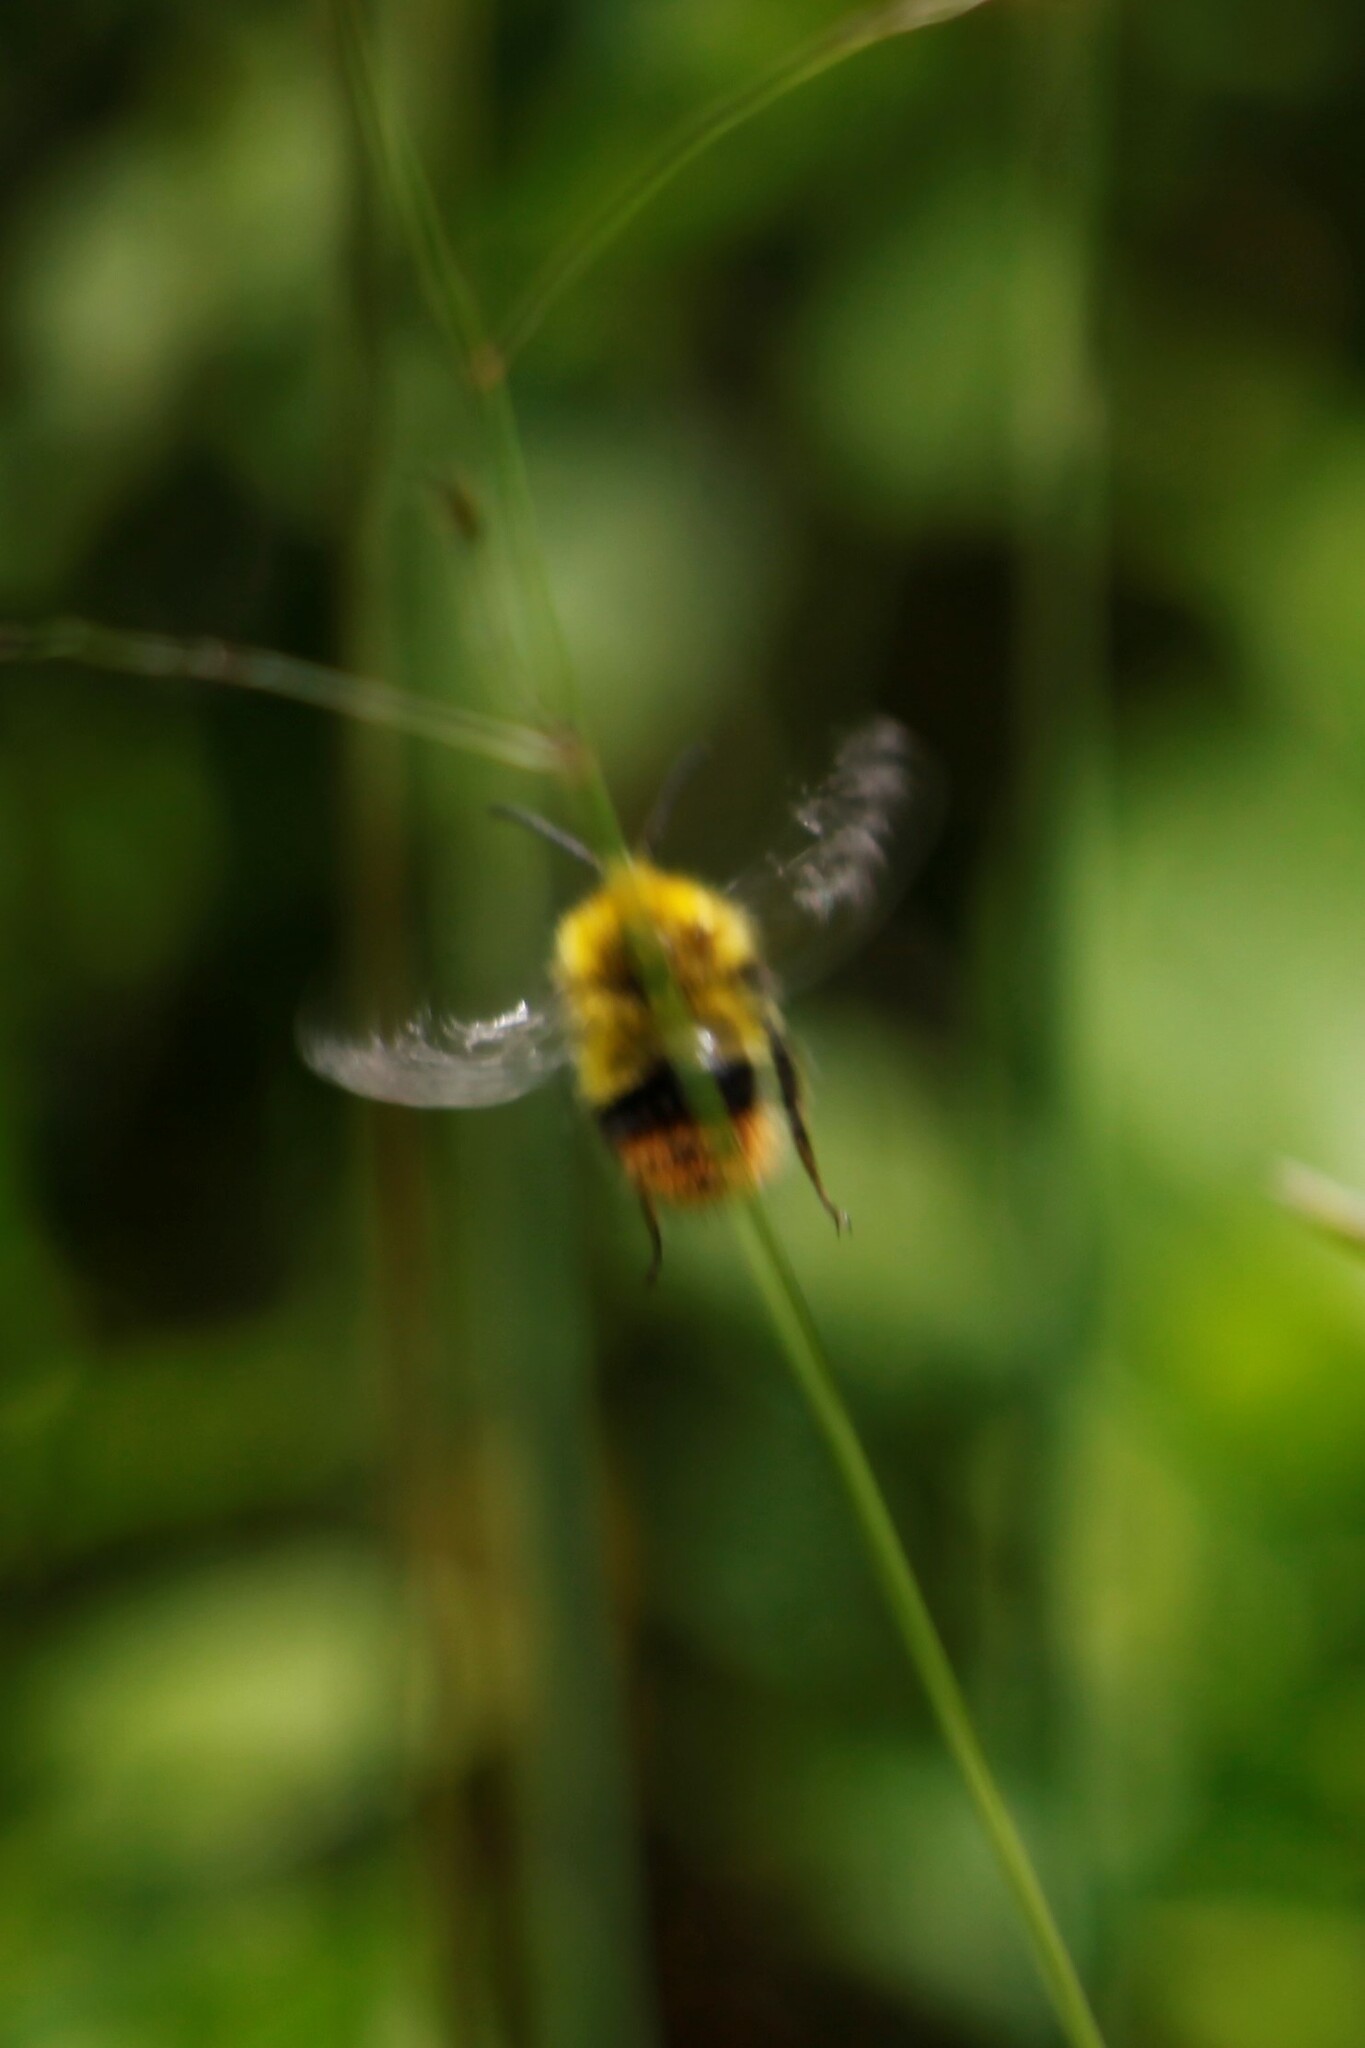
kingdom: Animalia
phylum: Arthropoda
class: Insecta
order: Hymenoptera
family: Apidae
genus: Bombus
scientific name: Bombus pratorum
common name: Early humble-bee
